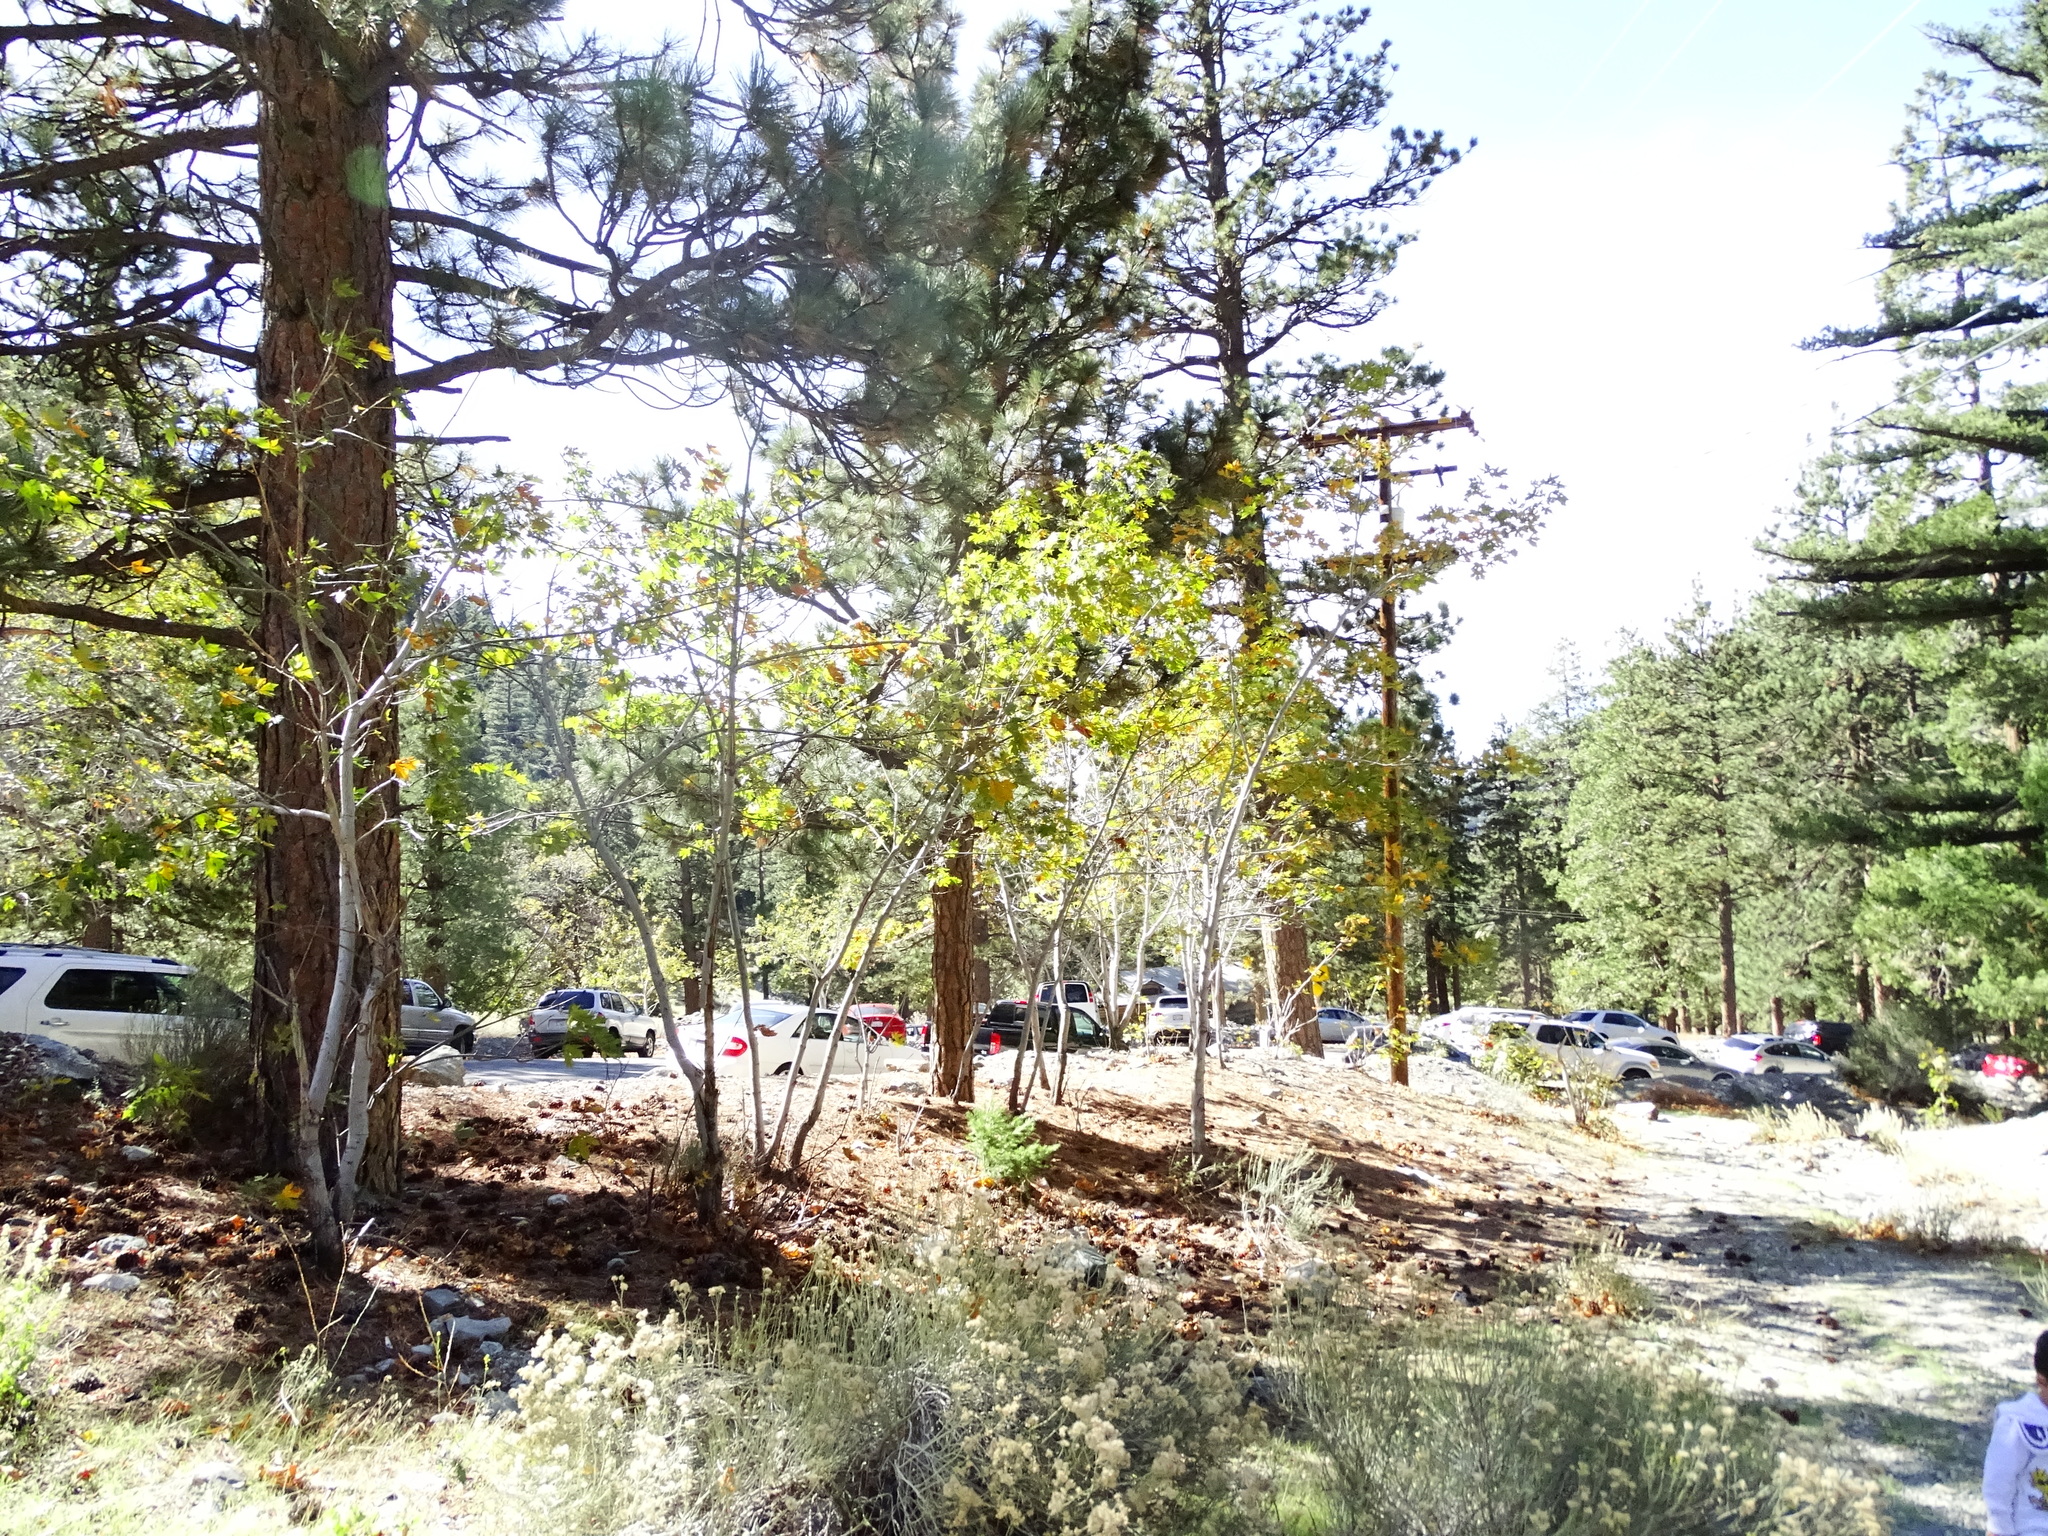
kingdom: Plantae
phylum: Tracheophyta
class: Magnoliopsida
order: Sapindales
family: Sapindaceae
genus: Acer
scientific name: Acer macrophyllum
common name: Oregon maple
